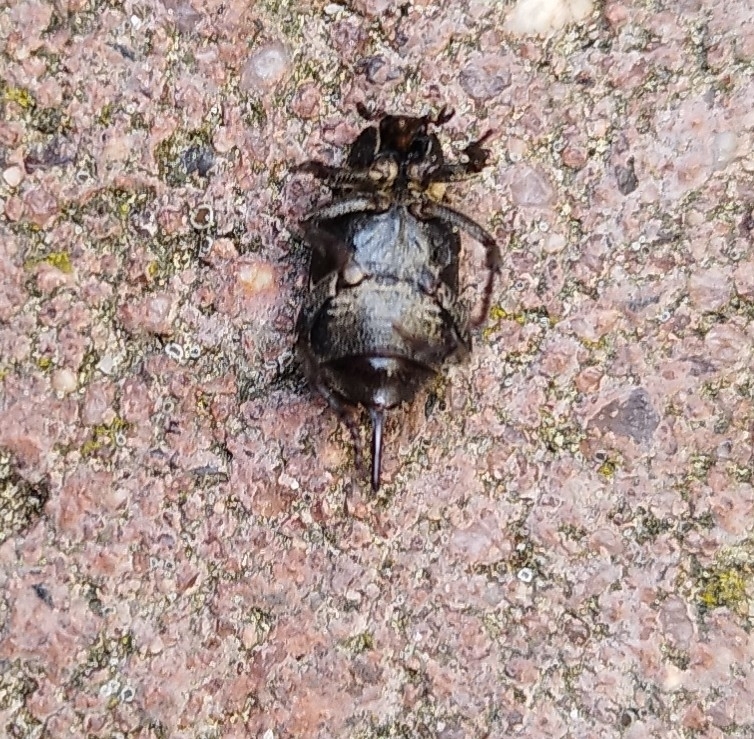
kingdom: Animalia
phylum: Arthropoda
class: Insecta
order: Coleoptera
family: Scarabaeidae
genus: Valgus
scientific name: Valgus hemipterus
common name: Bug flower chafer
